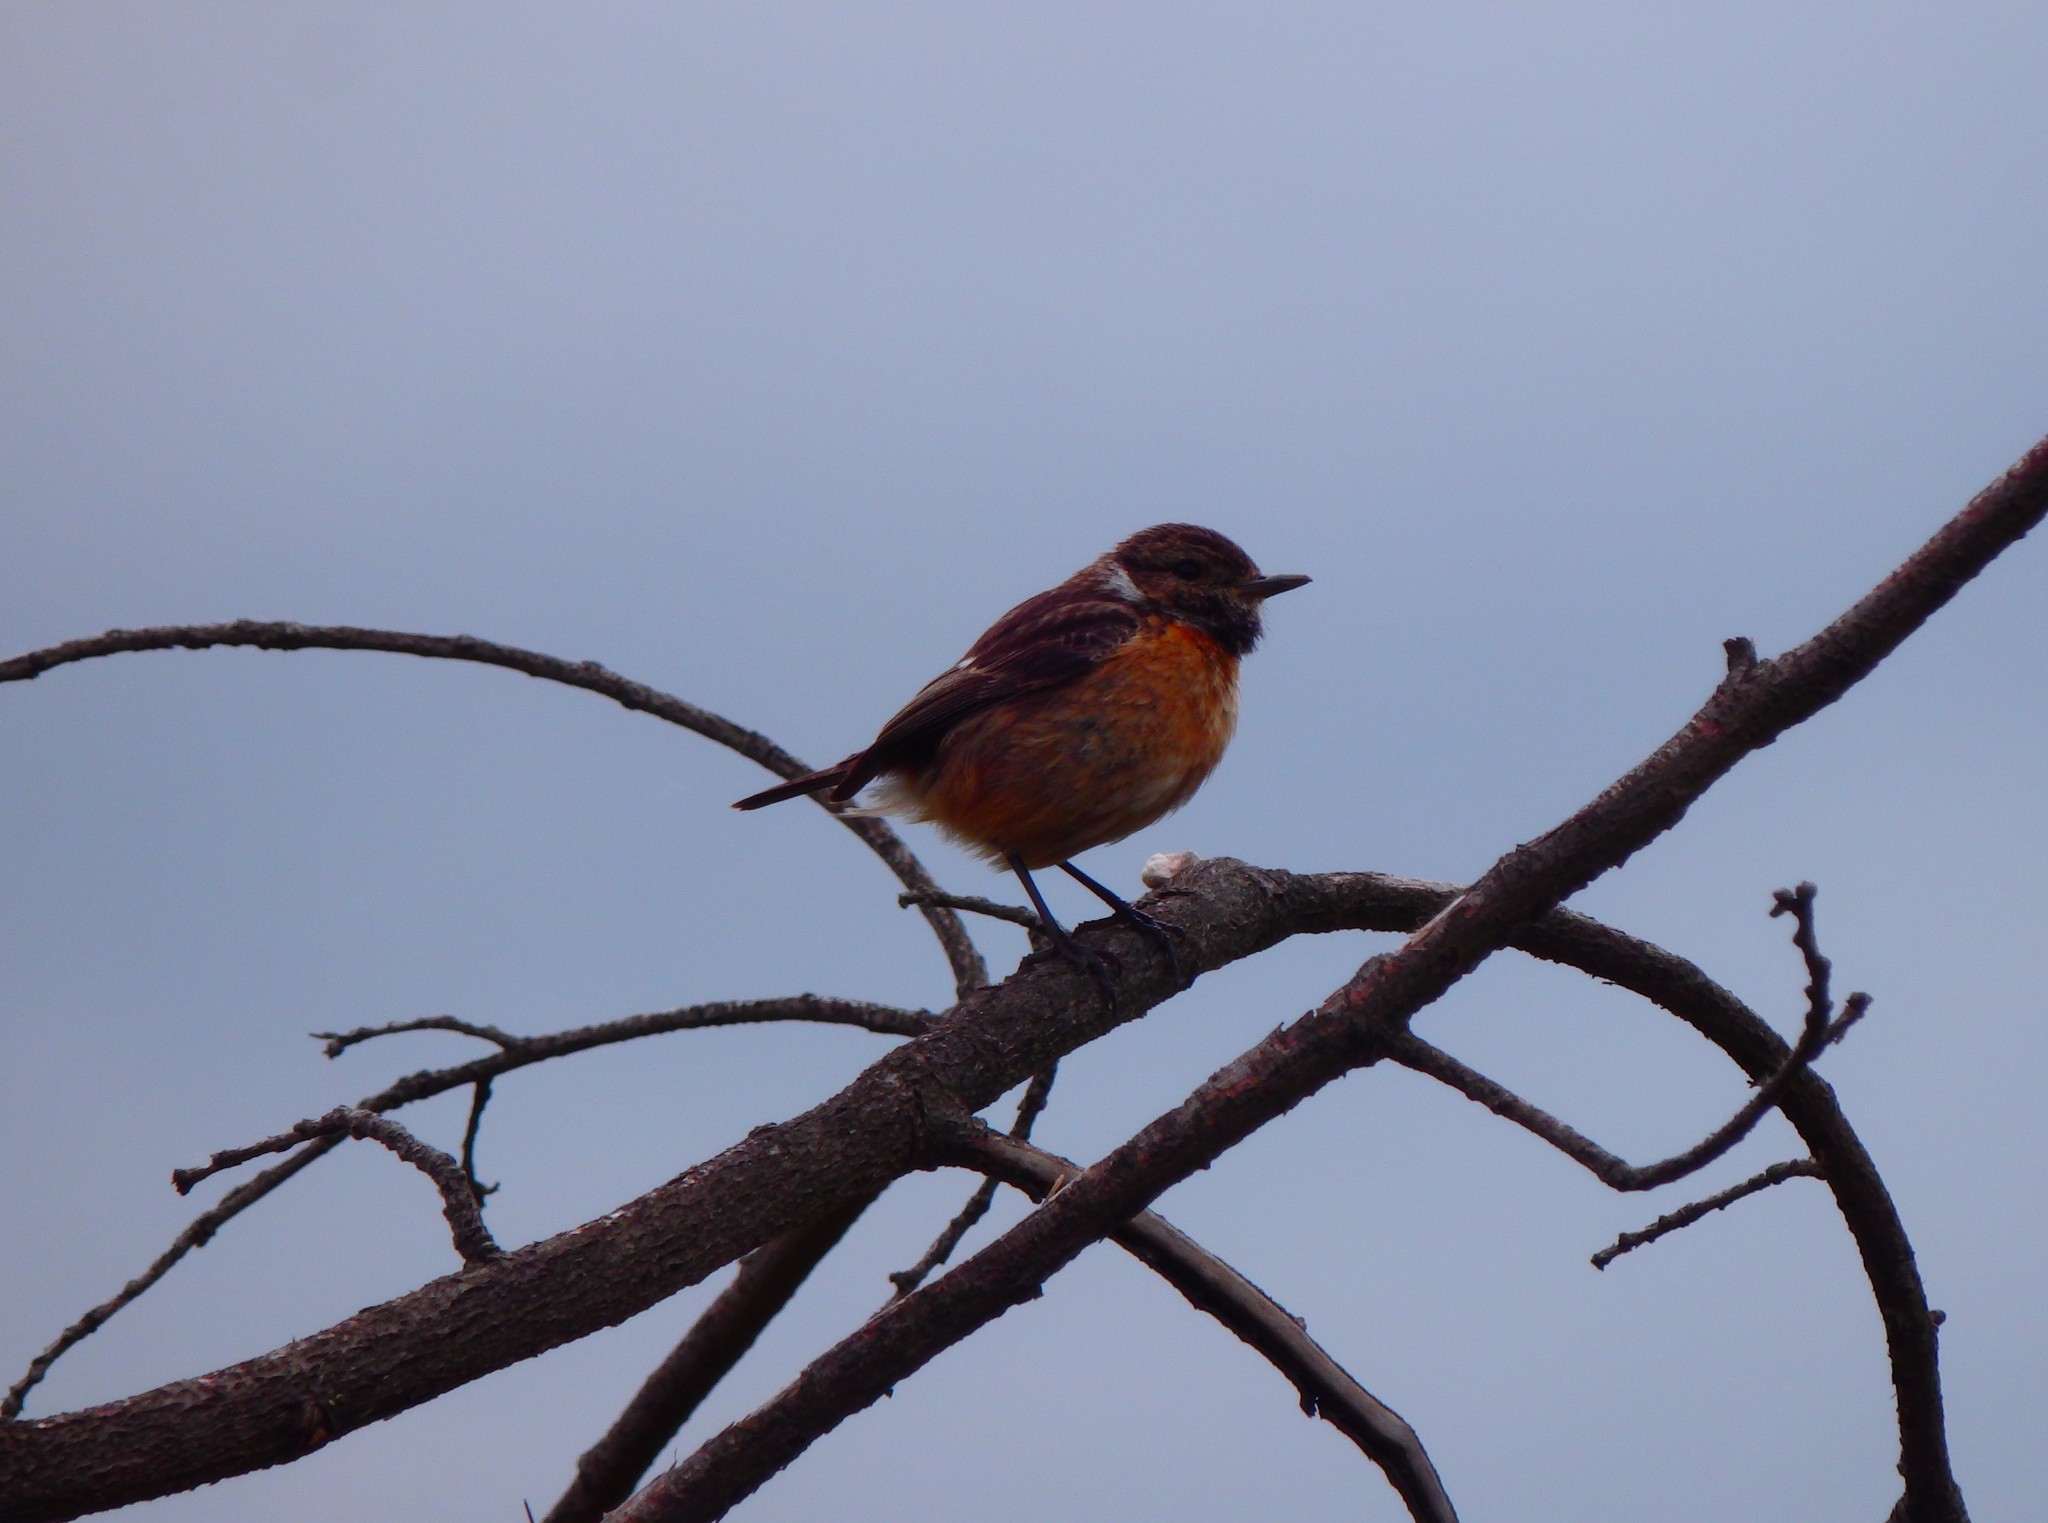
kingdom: Animalia
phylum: Chordata
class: Aves
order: Passeriformes
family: Muscicapidae
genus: Saxicola
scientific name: Saxicola rubicola
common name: European stonechat
